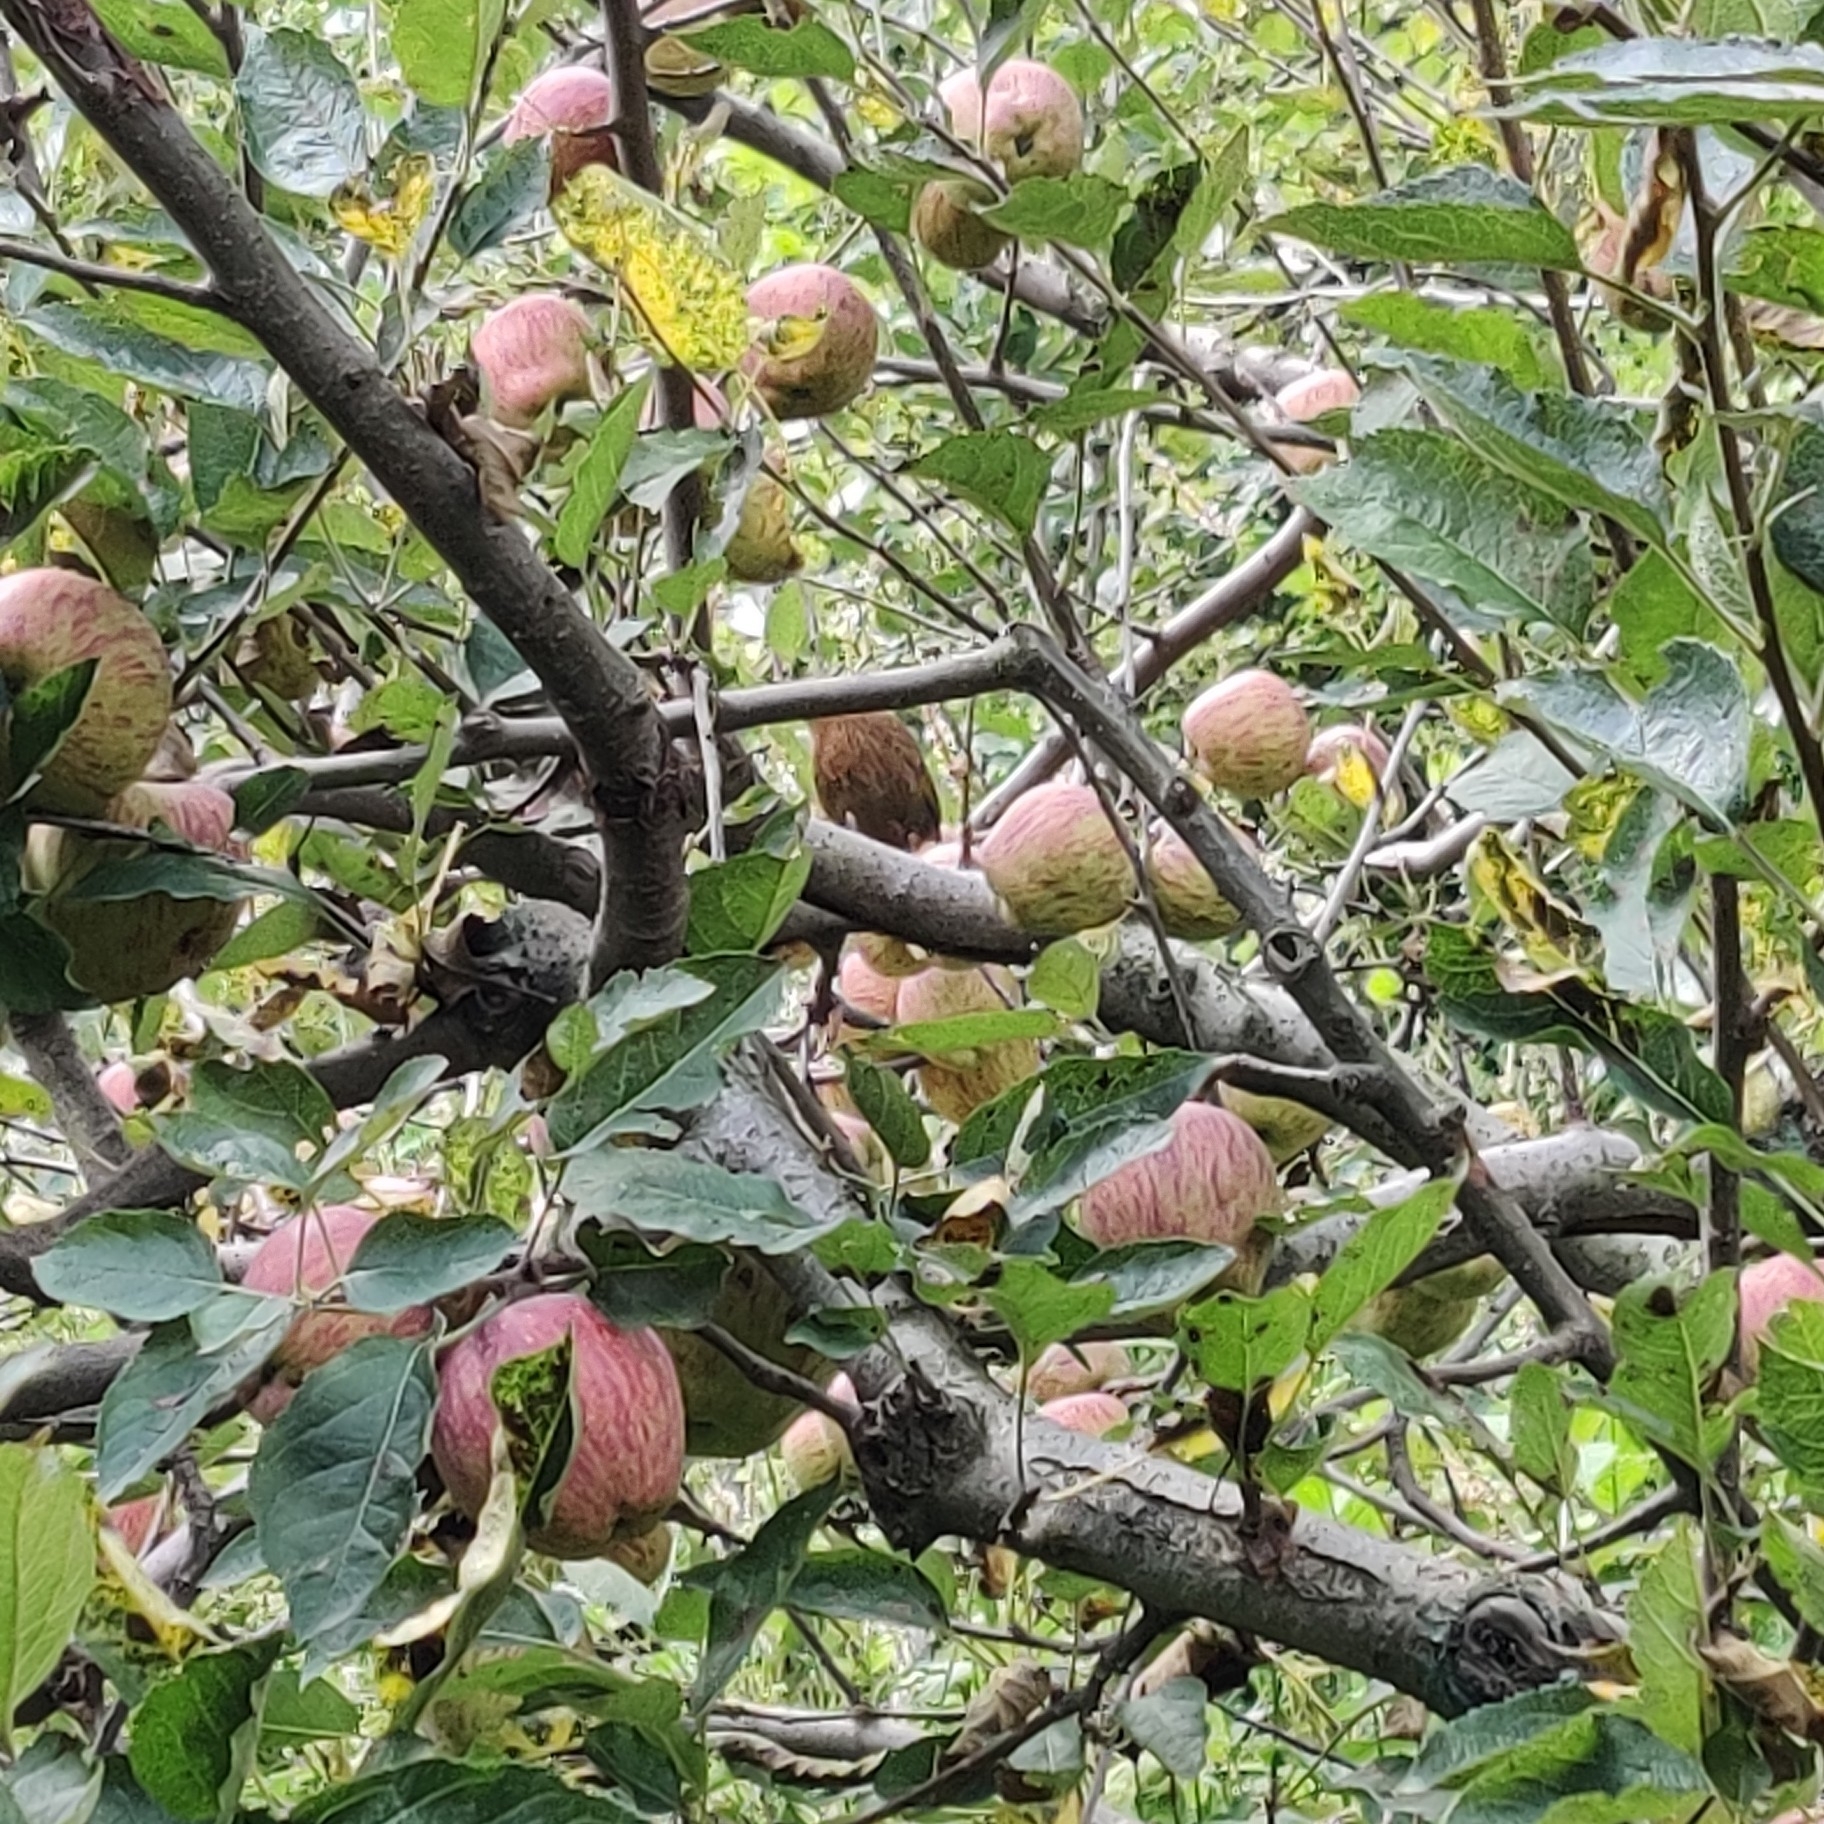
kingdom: Animalia
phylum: Chordata
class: Aves
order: Passeriformes
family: Leiothrichidae
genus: Trochalopteron
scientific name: Trochalopteron lineatum
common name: Streaked laughingthrush
